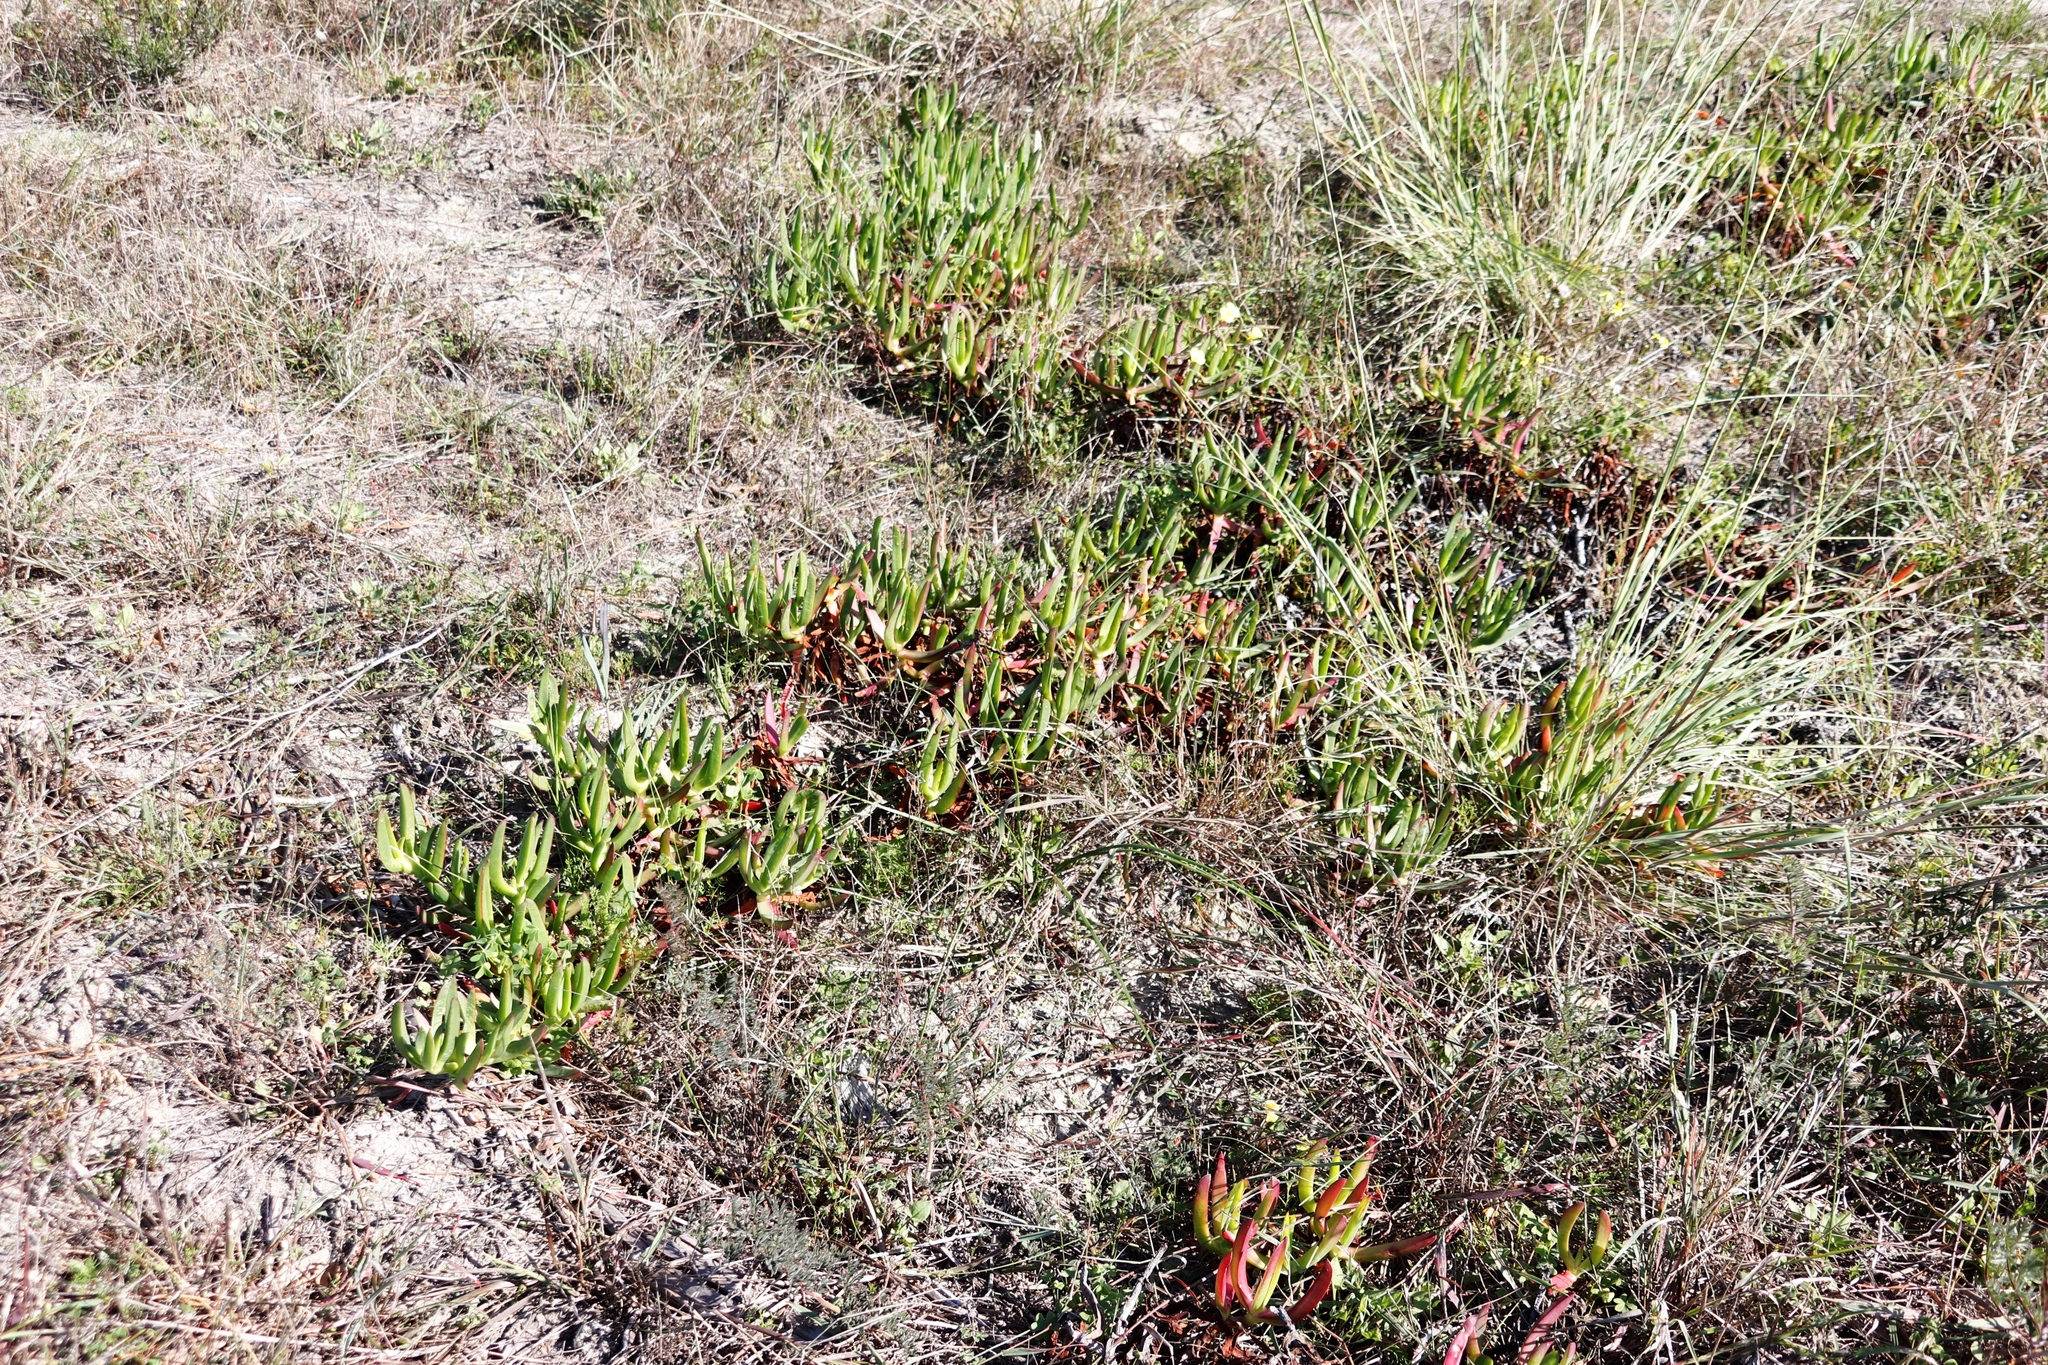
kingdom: Plantae
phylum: Tracheophyta
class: Magnoliopsida
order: Caryophyllales
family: Aizoaceae
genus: Carpobrotus
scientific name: Carpobrotus edulis
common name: Hottentot-fig
